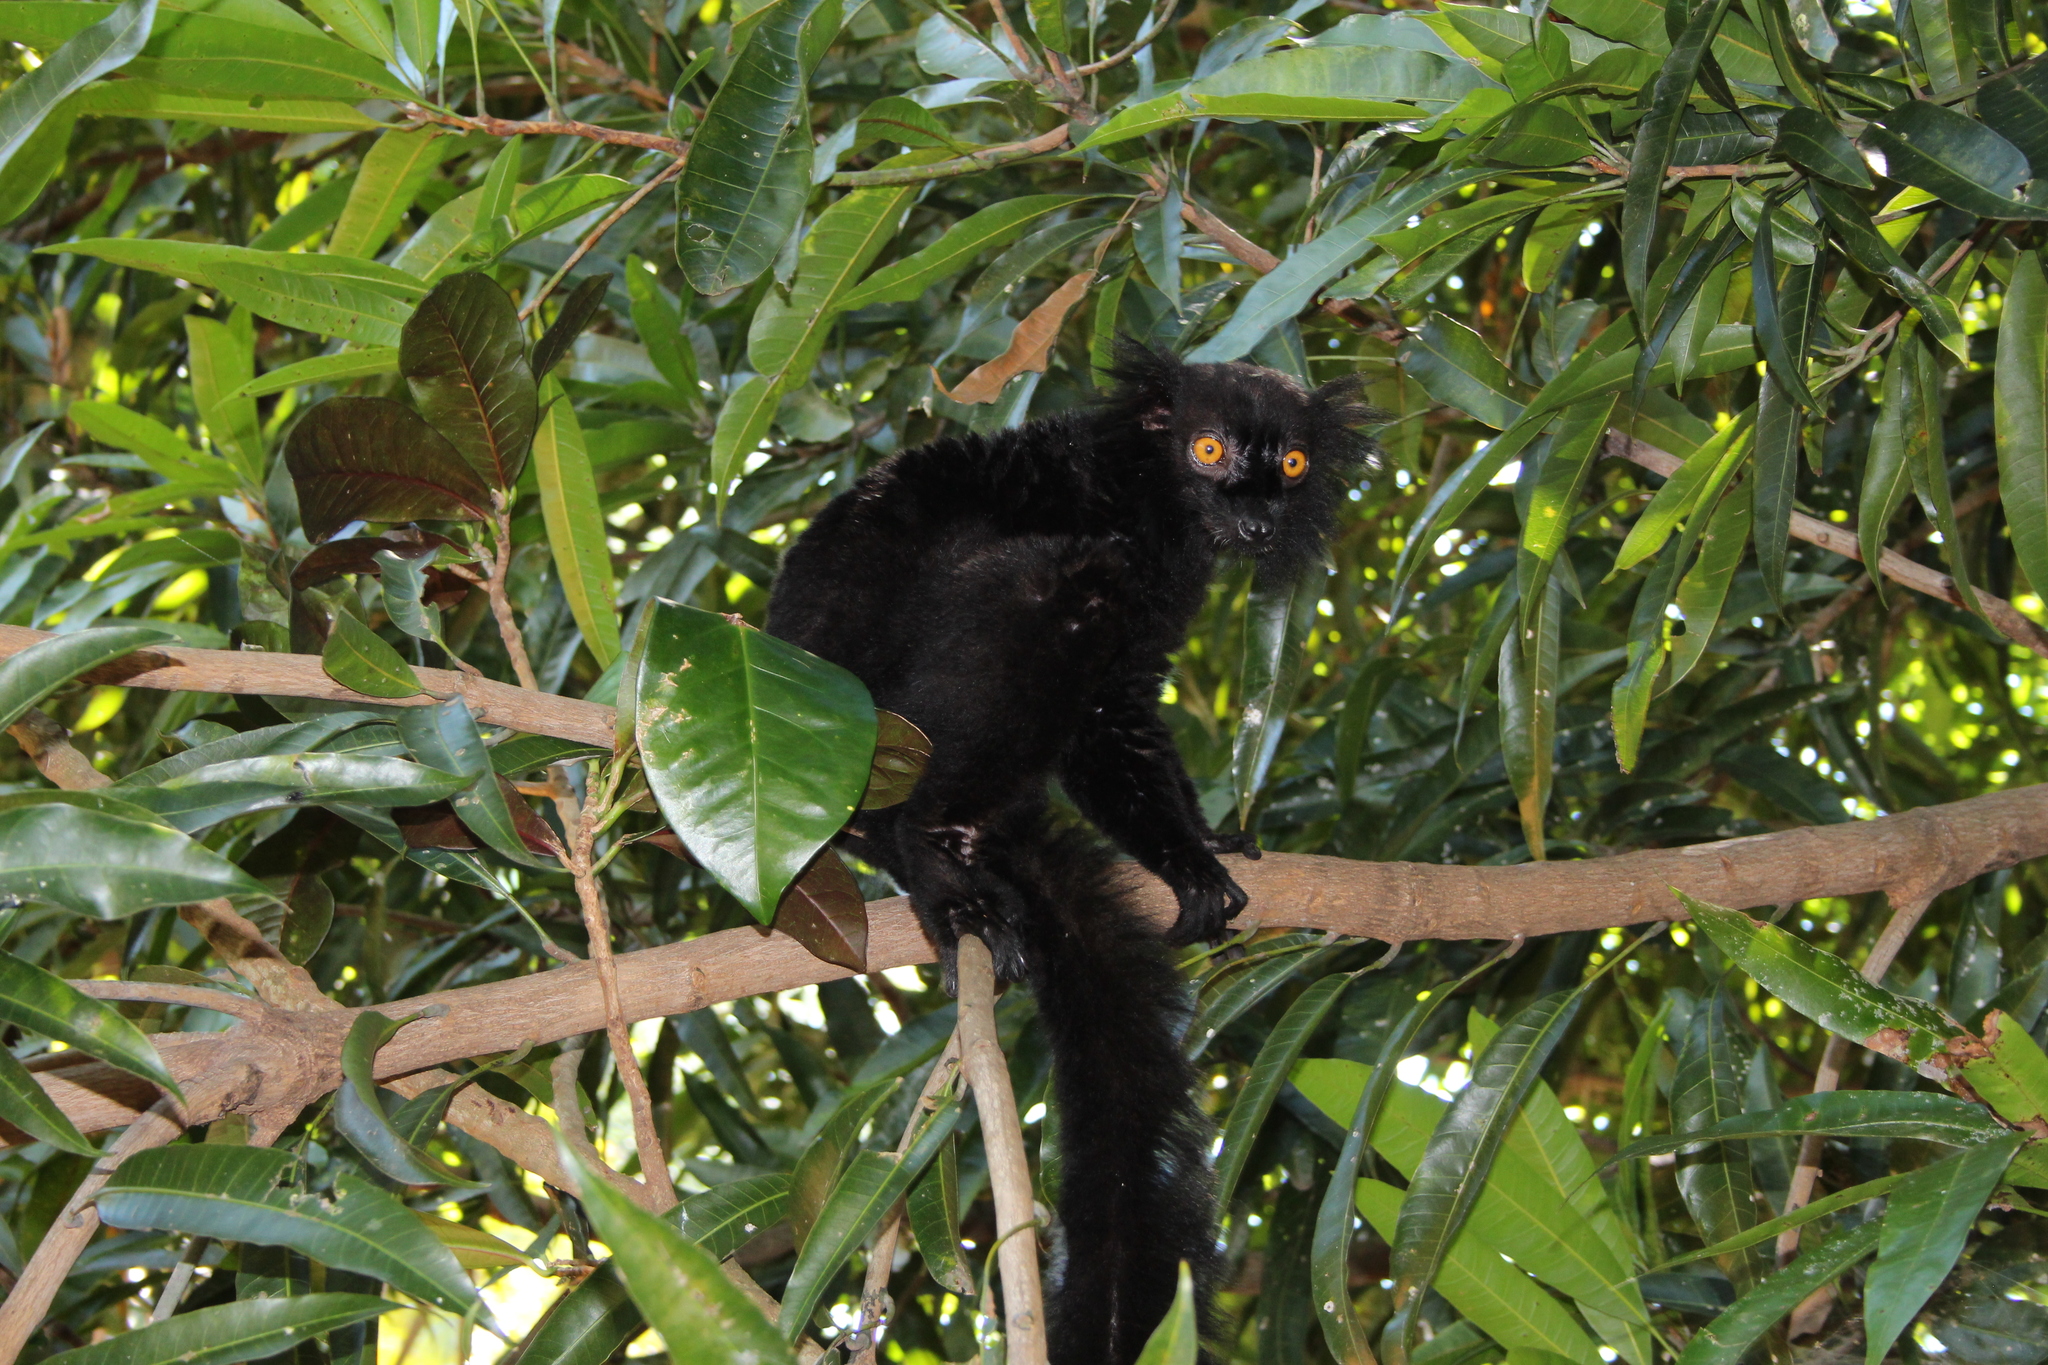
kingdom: Animalia
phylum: Chordata
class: Mammalia
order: Primates
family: Lemuridae
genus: Eulemur
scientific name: Eulemur macaco
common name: Black lemur
